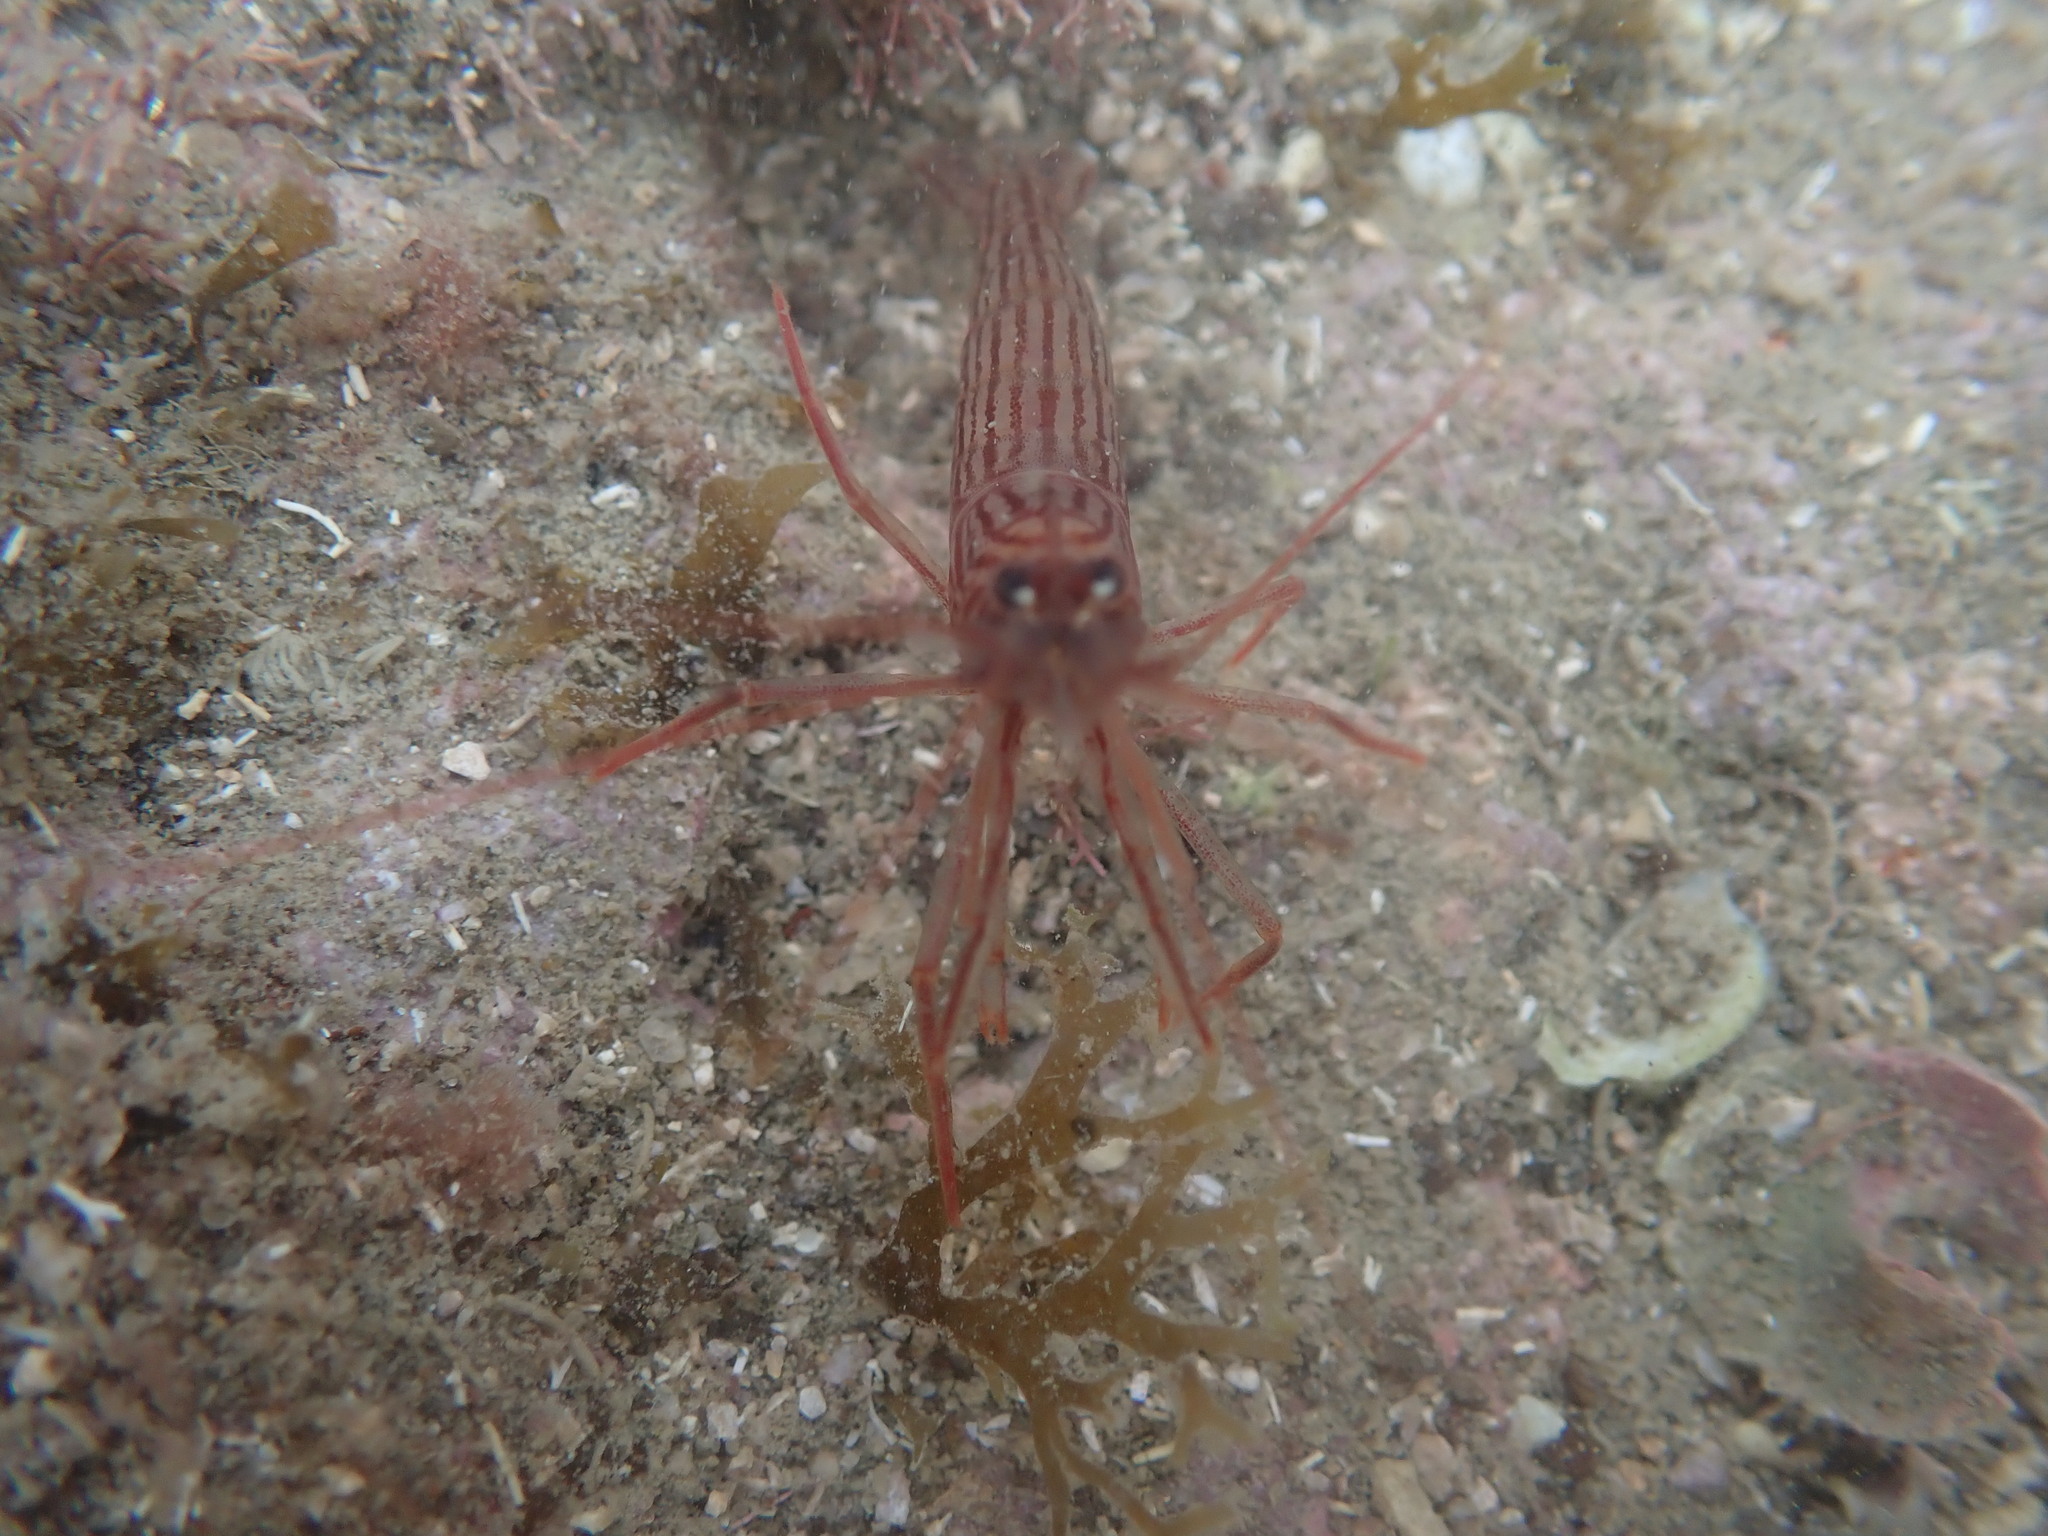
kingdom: Animalia
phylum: Arthropoda
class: Malacostraca
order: Decapoda
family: Lysmatidae
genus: Lysmata
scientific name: Lysmata vittata
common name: Indian lined shrimp
